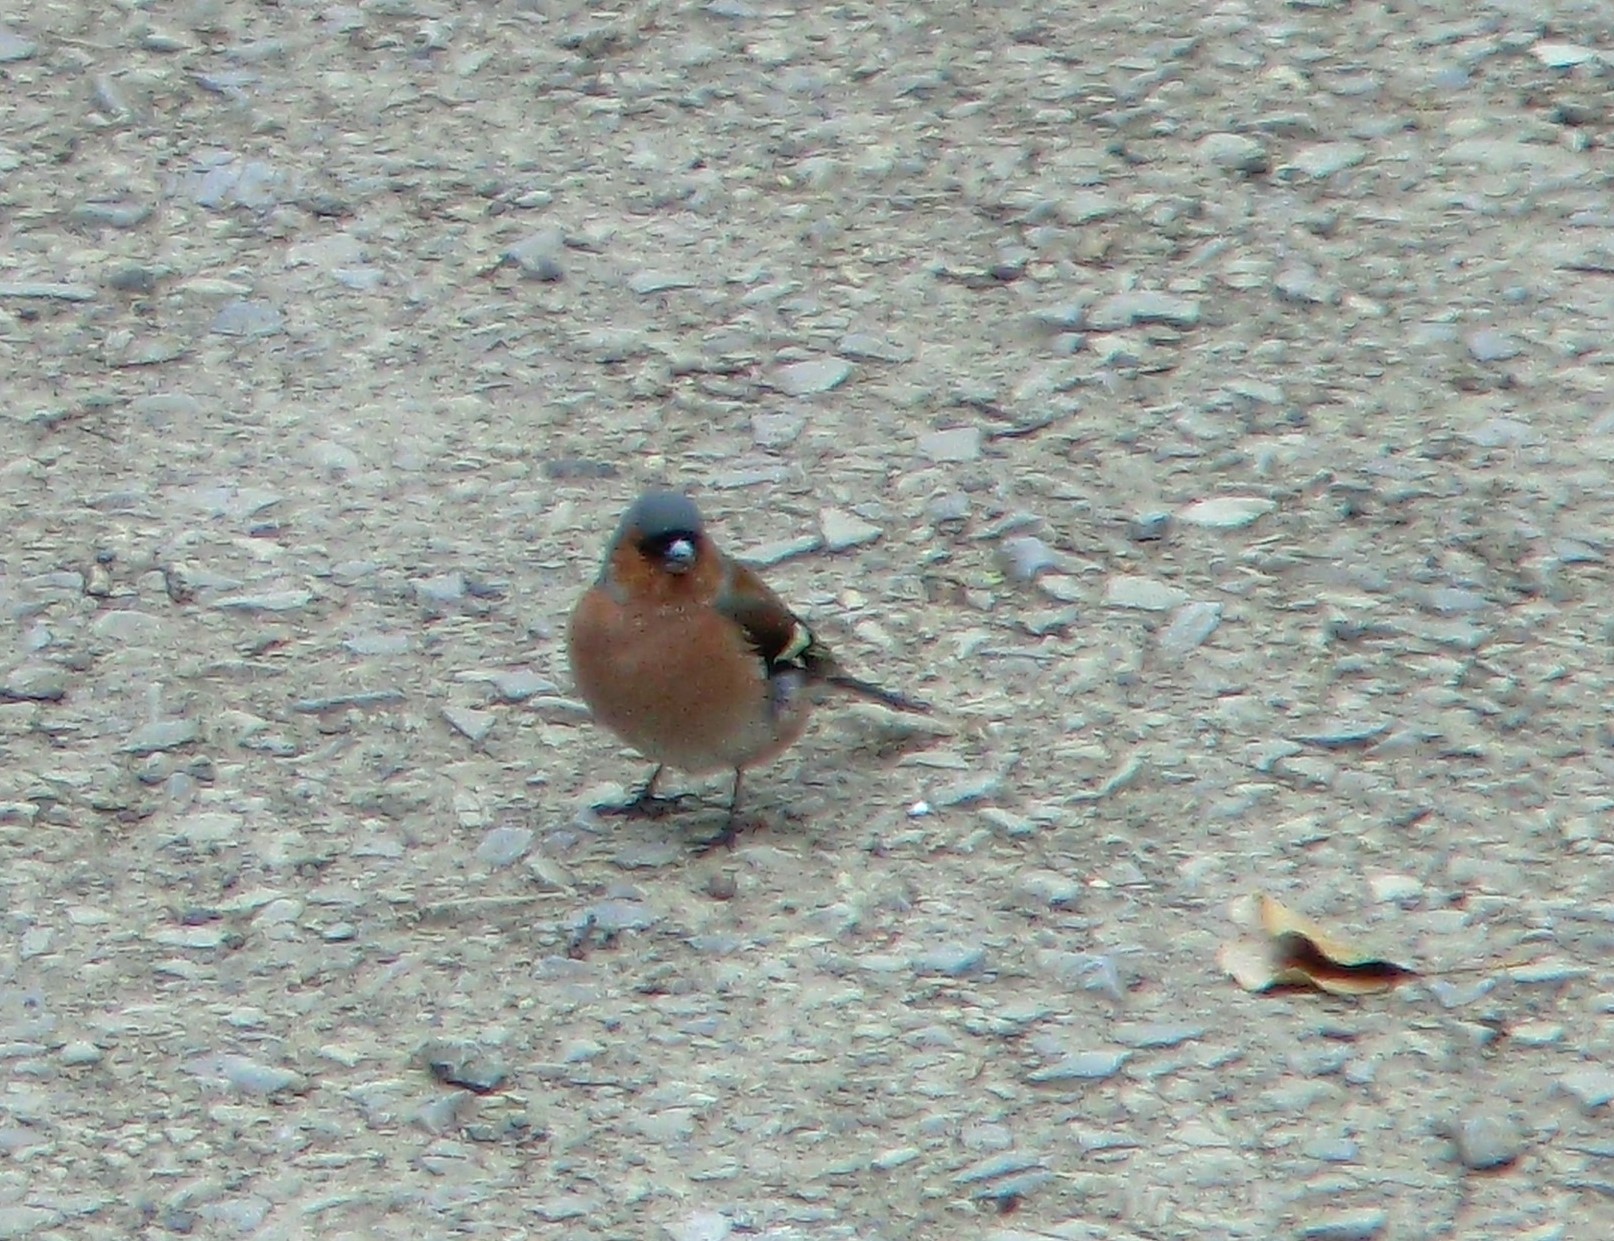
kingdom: Animalia
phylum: Chordata
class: Aves
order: Passeriformes
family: Fringillidae
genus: Fringilla
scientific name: Fringilla coelebs
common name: Common chaffinch
